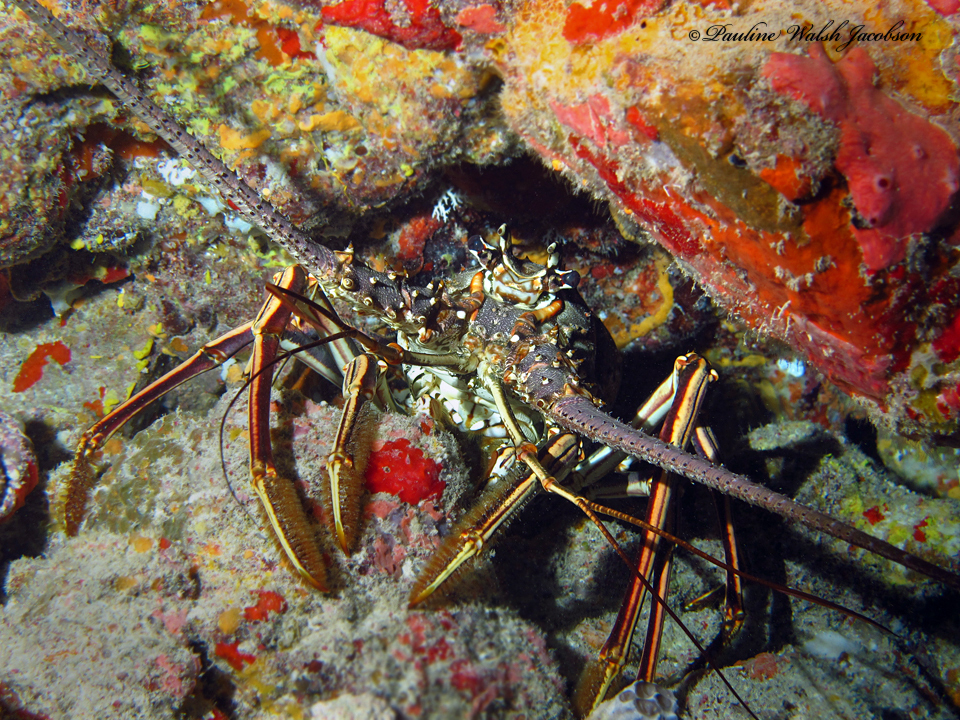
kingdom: Animalia
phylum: Arthropoda
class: Malacostraca
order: Decapoda
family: Palinuridae
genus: Panulirus
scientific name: Panulirus argus
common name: Caribbean spiny lobster
